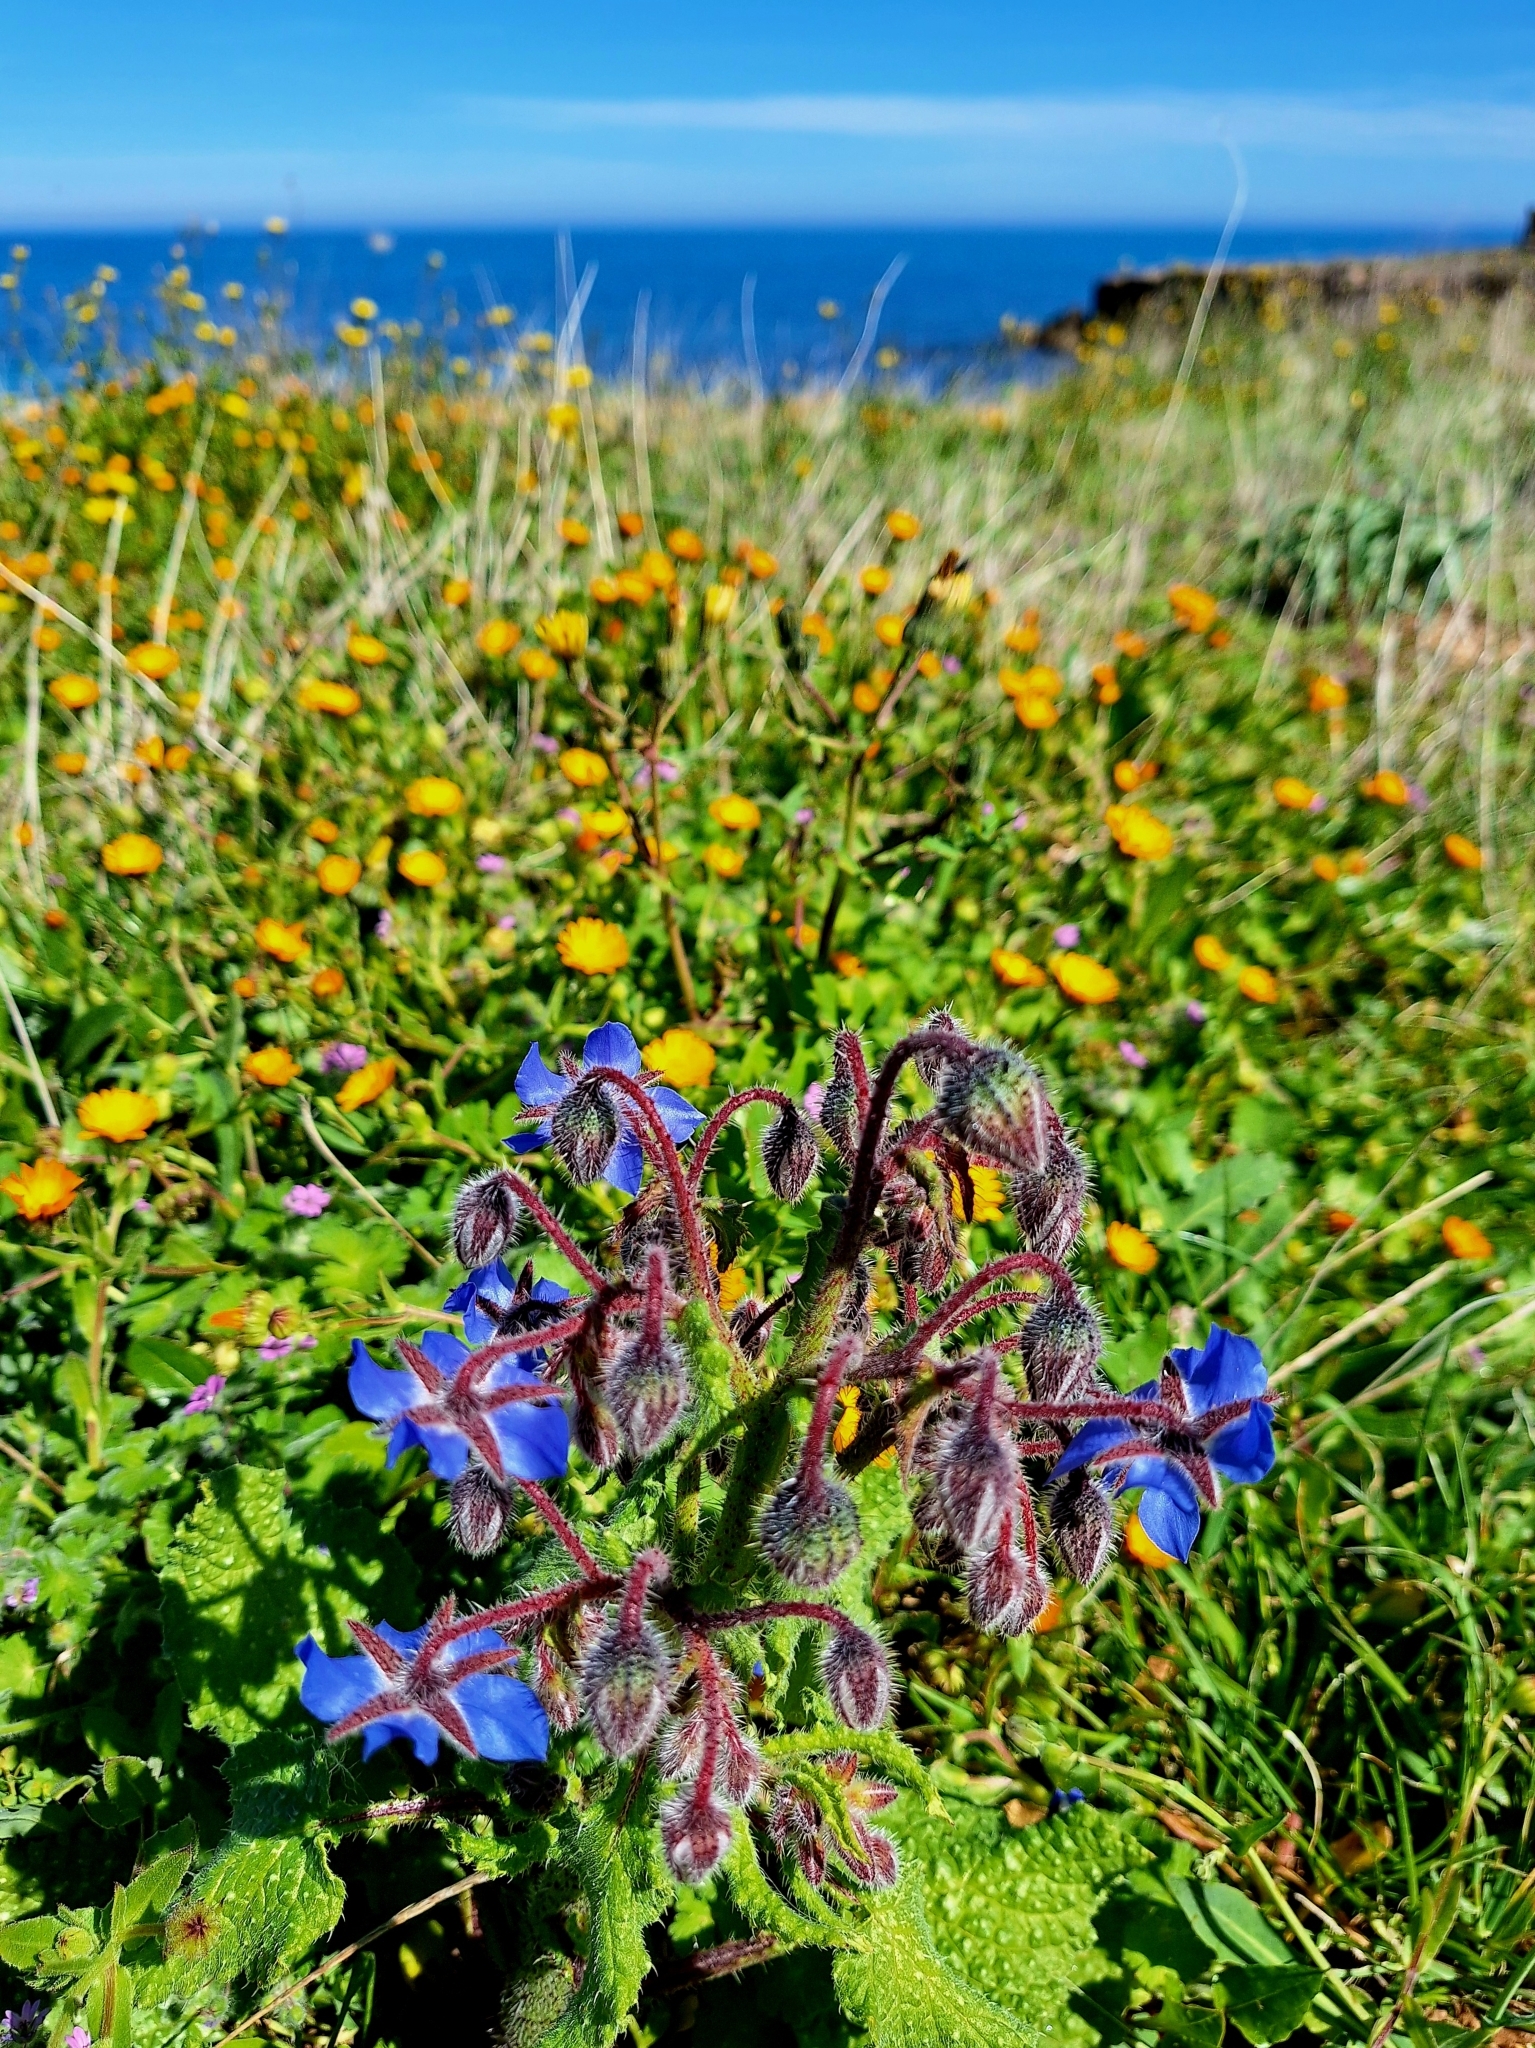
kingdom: Plantae
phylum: Tracheophyta
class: Magnoliopsida
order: Boraginales
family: Boraginaceae
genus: Borago
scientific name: Borago officinalis
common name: Borage
